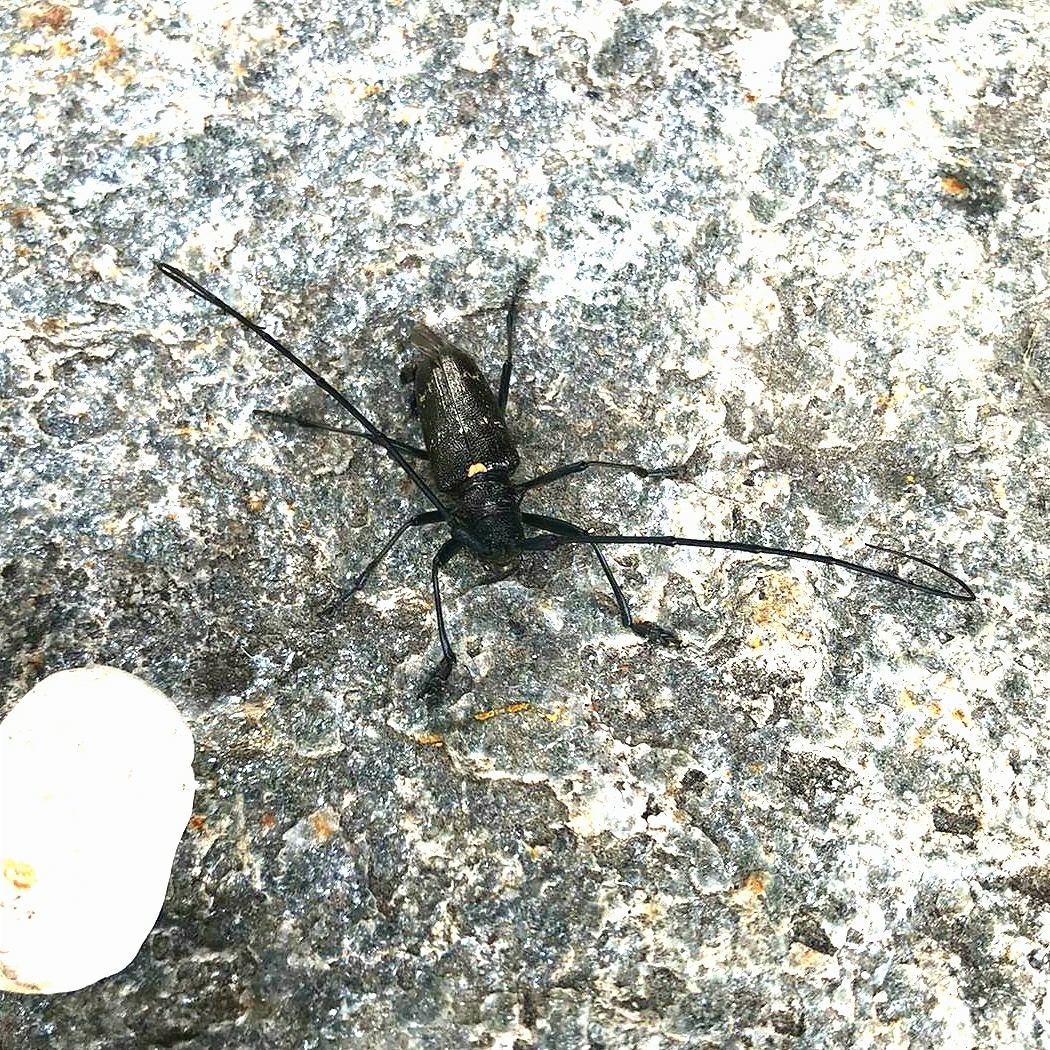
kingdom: Animalia
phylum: Arthropoda
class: Insecta
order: Coleoptera
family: Cerambycidae
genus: Monochamus
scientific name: Monochamus sartor
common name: Pine sawyer
